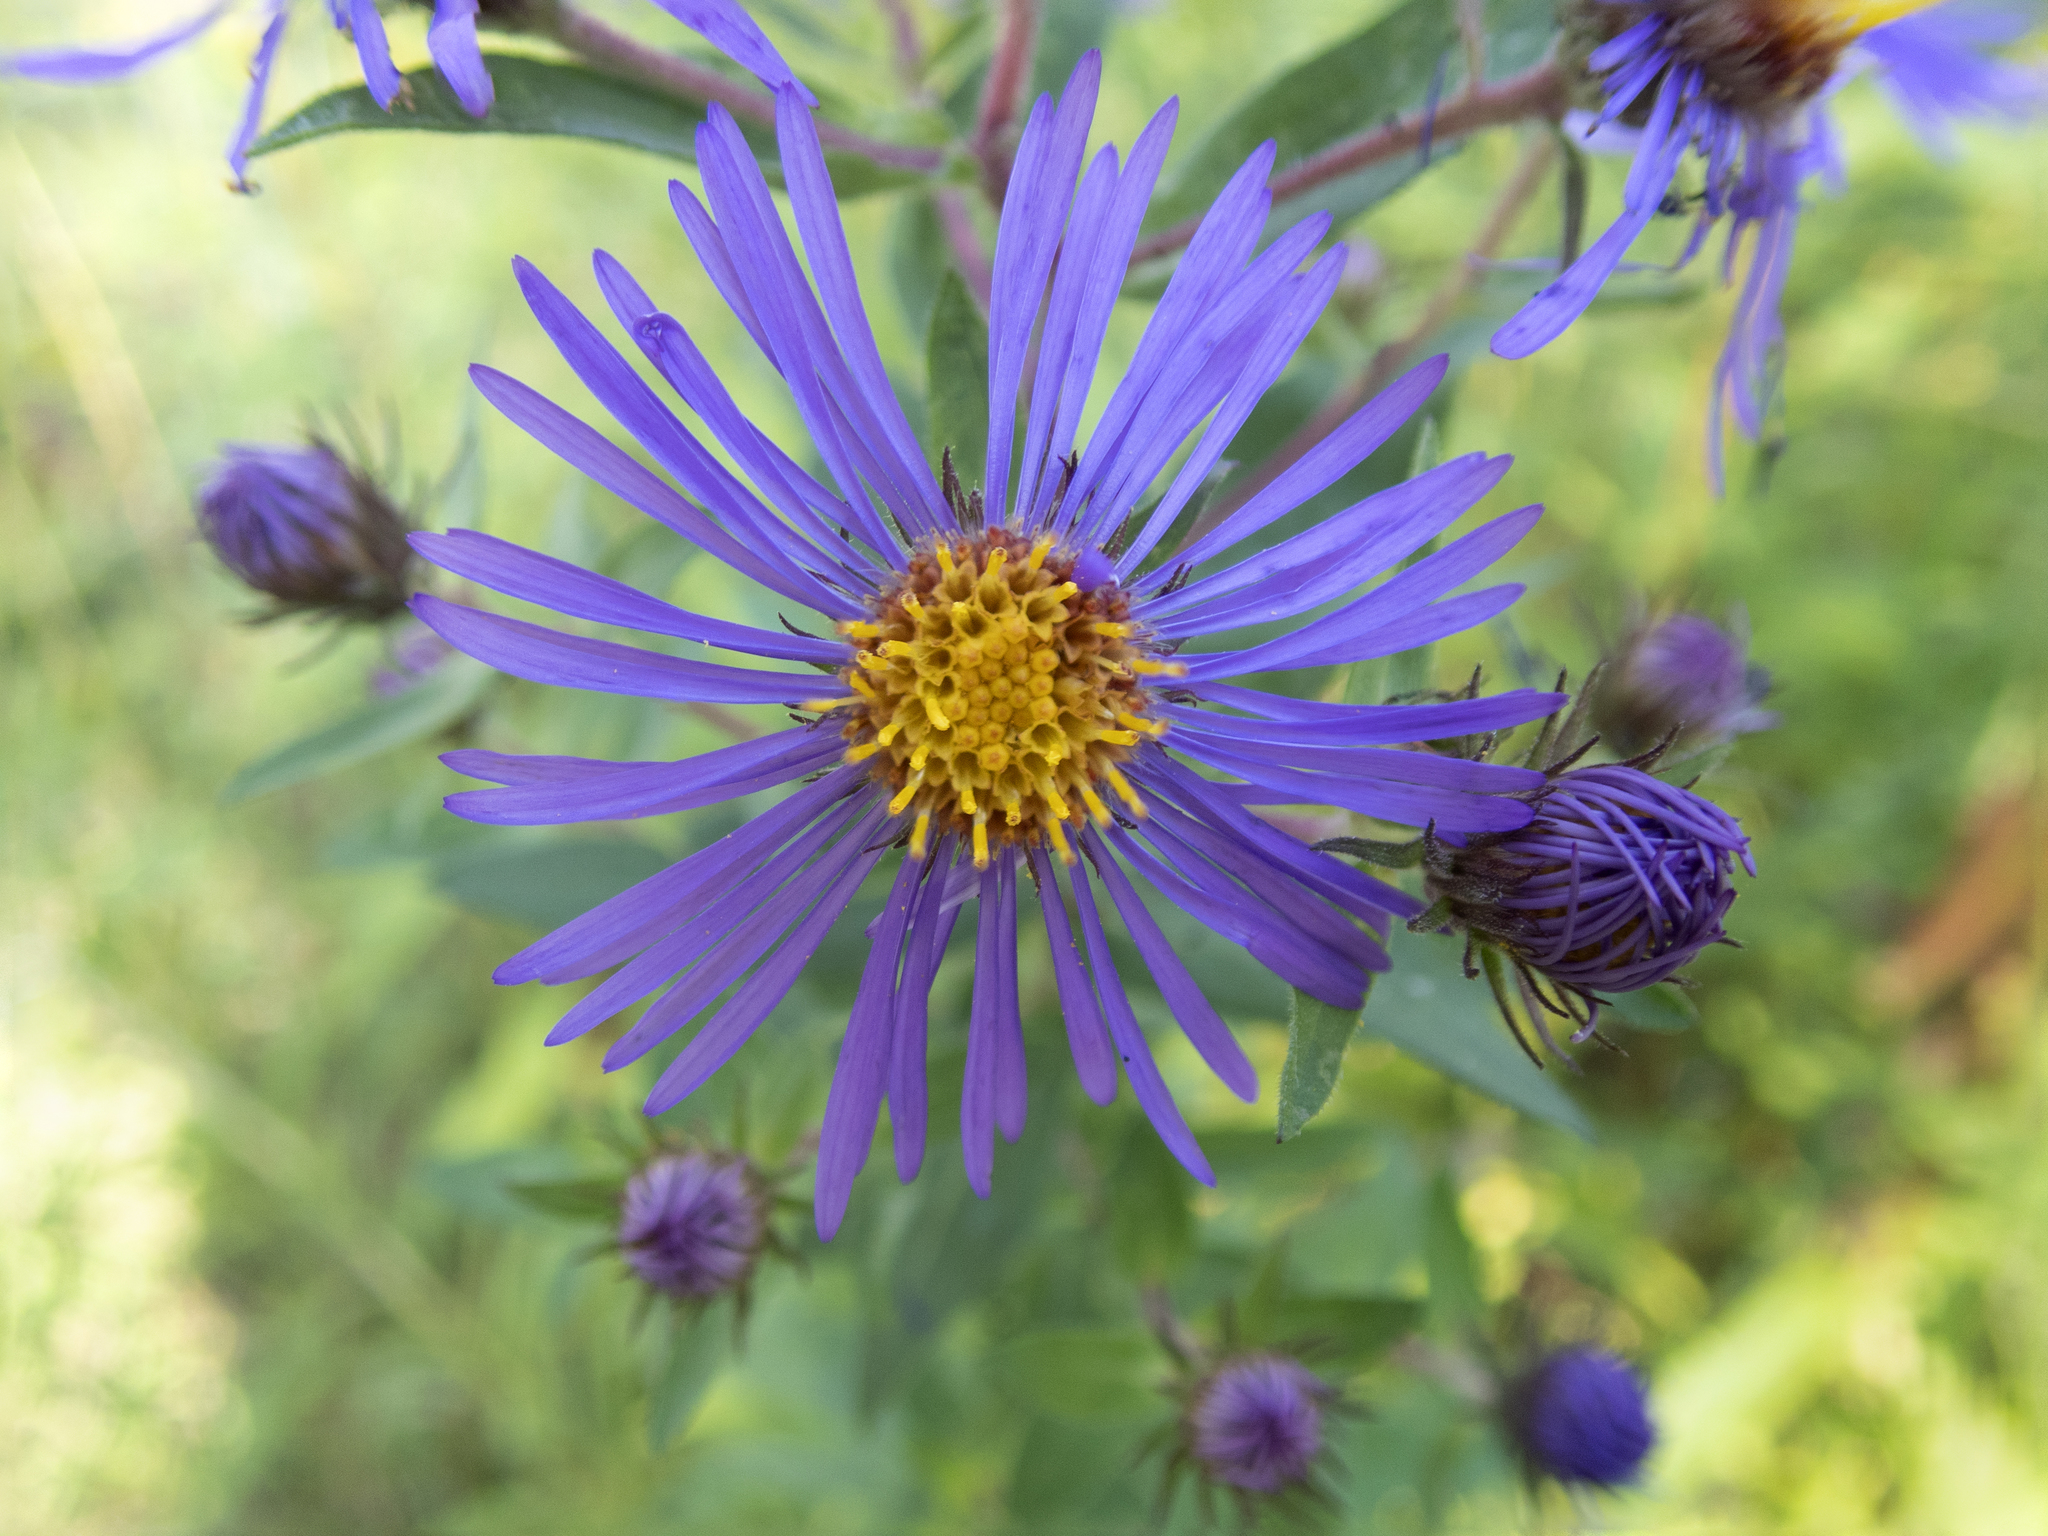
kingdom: Plantae
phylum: Tracheophyta
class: Magnoliopsida
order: Asterales
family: Asteraceae
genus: Symphyotrichum
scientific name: Symphyotrichum novae-angliae
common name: Michaelmas daisy
